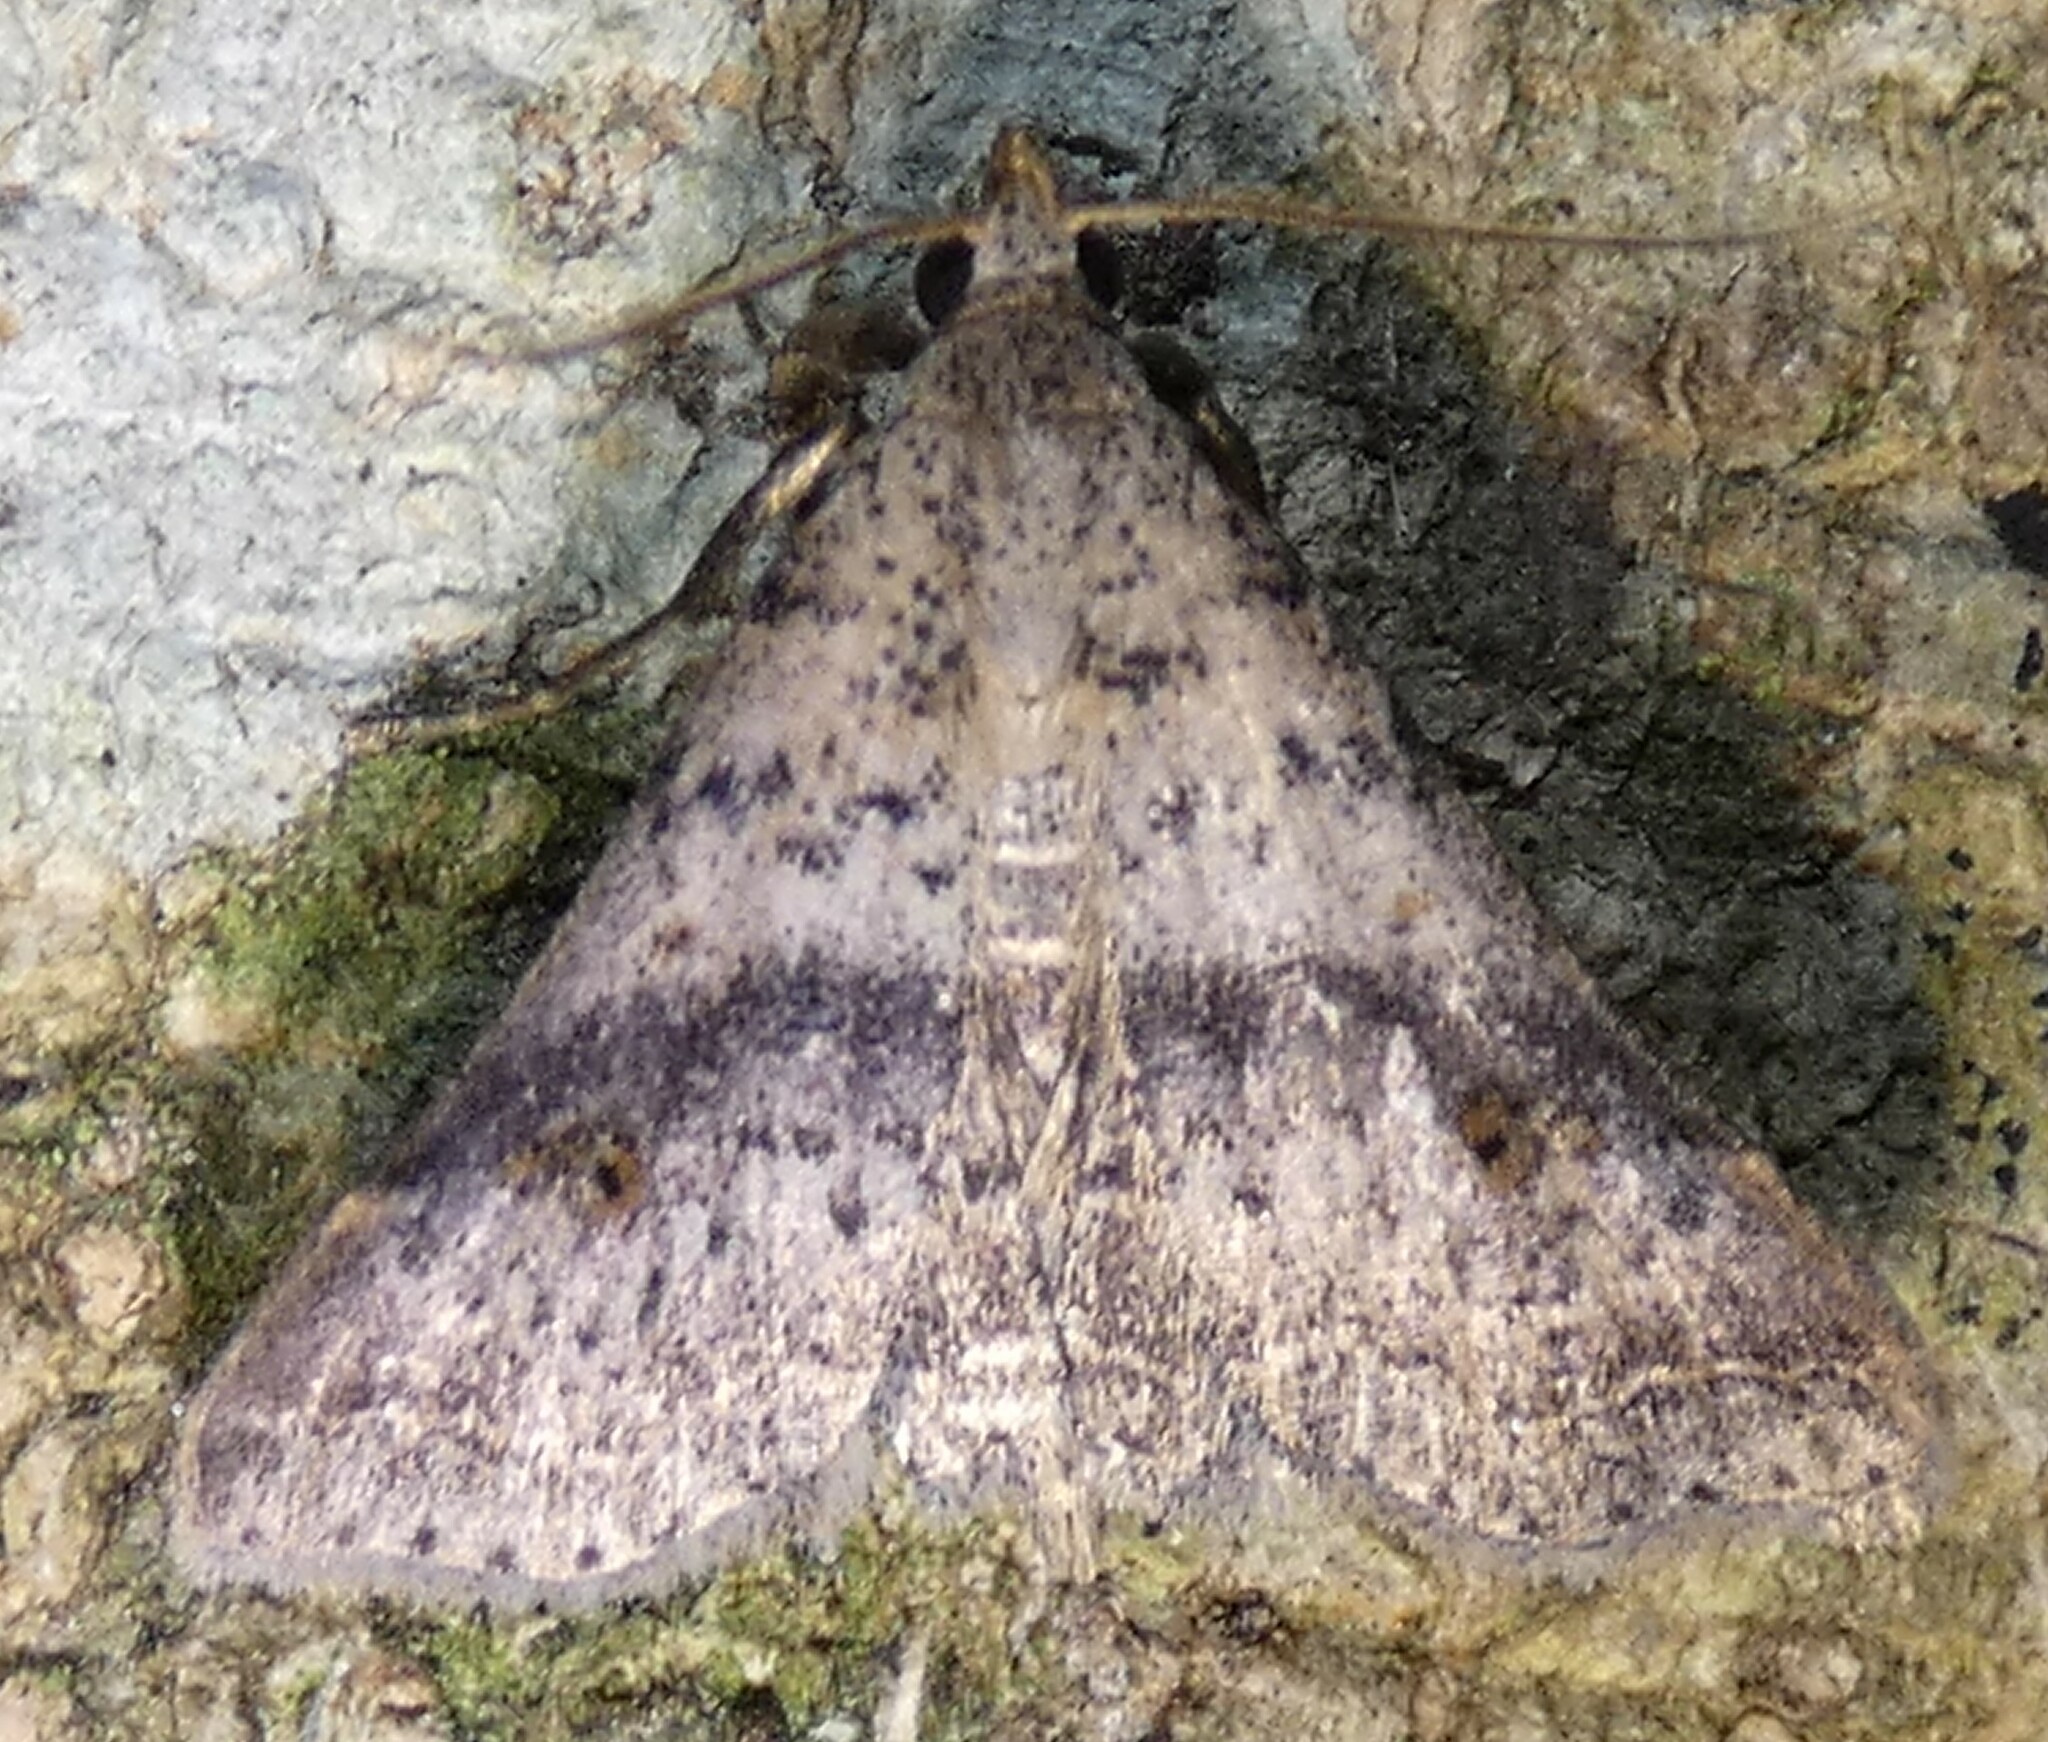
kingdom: Animalia
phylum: Arthropoda
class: Insecta
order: Lepidoptera
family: Erebidae
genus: Bleptina
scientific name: Bleptina caradrinalis
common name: Bent-winged owlet
